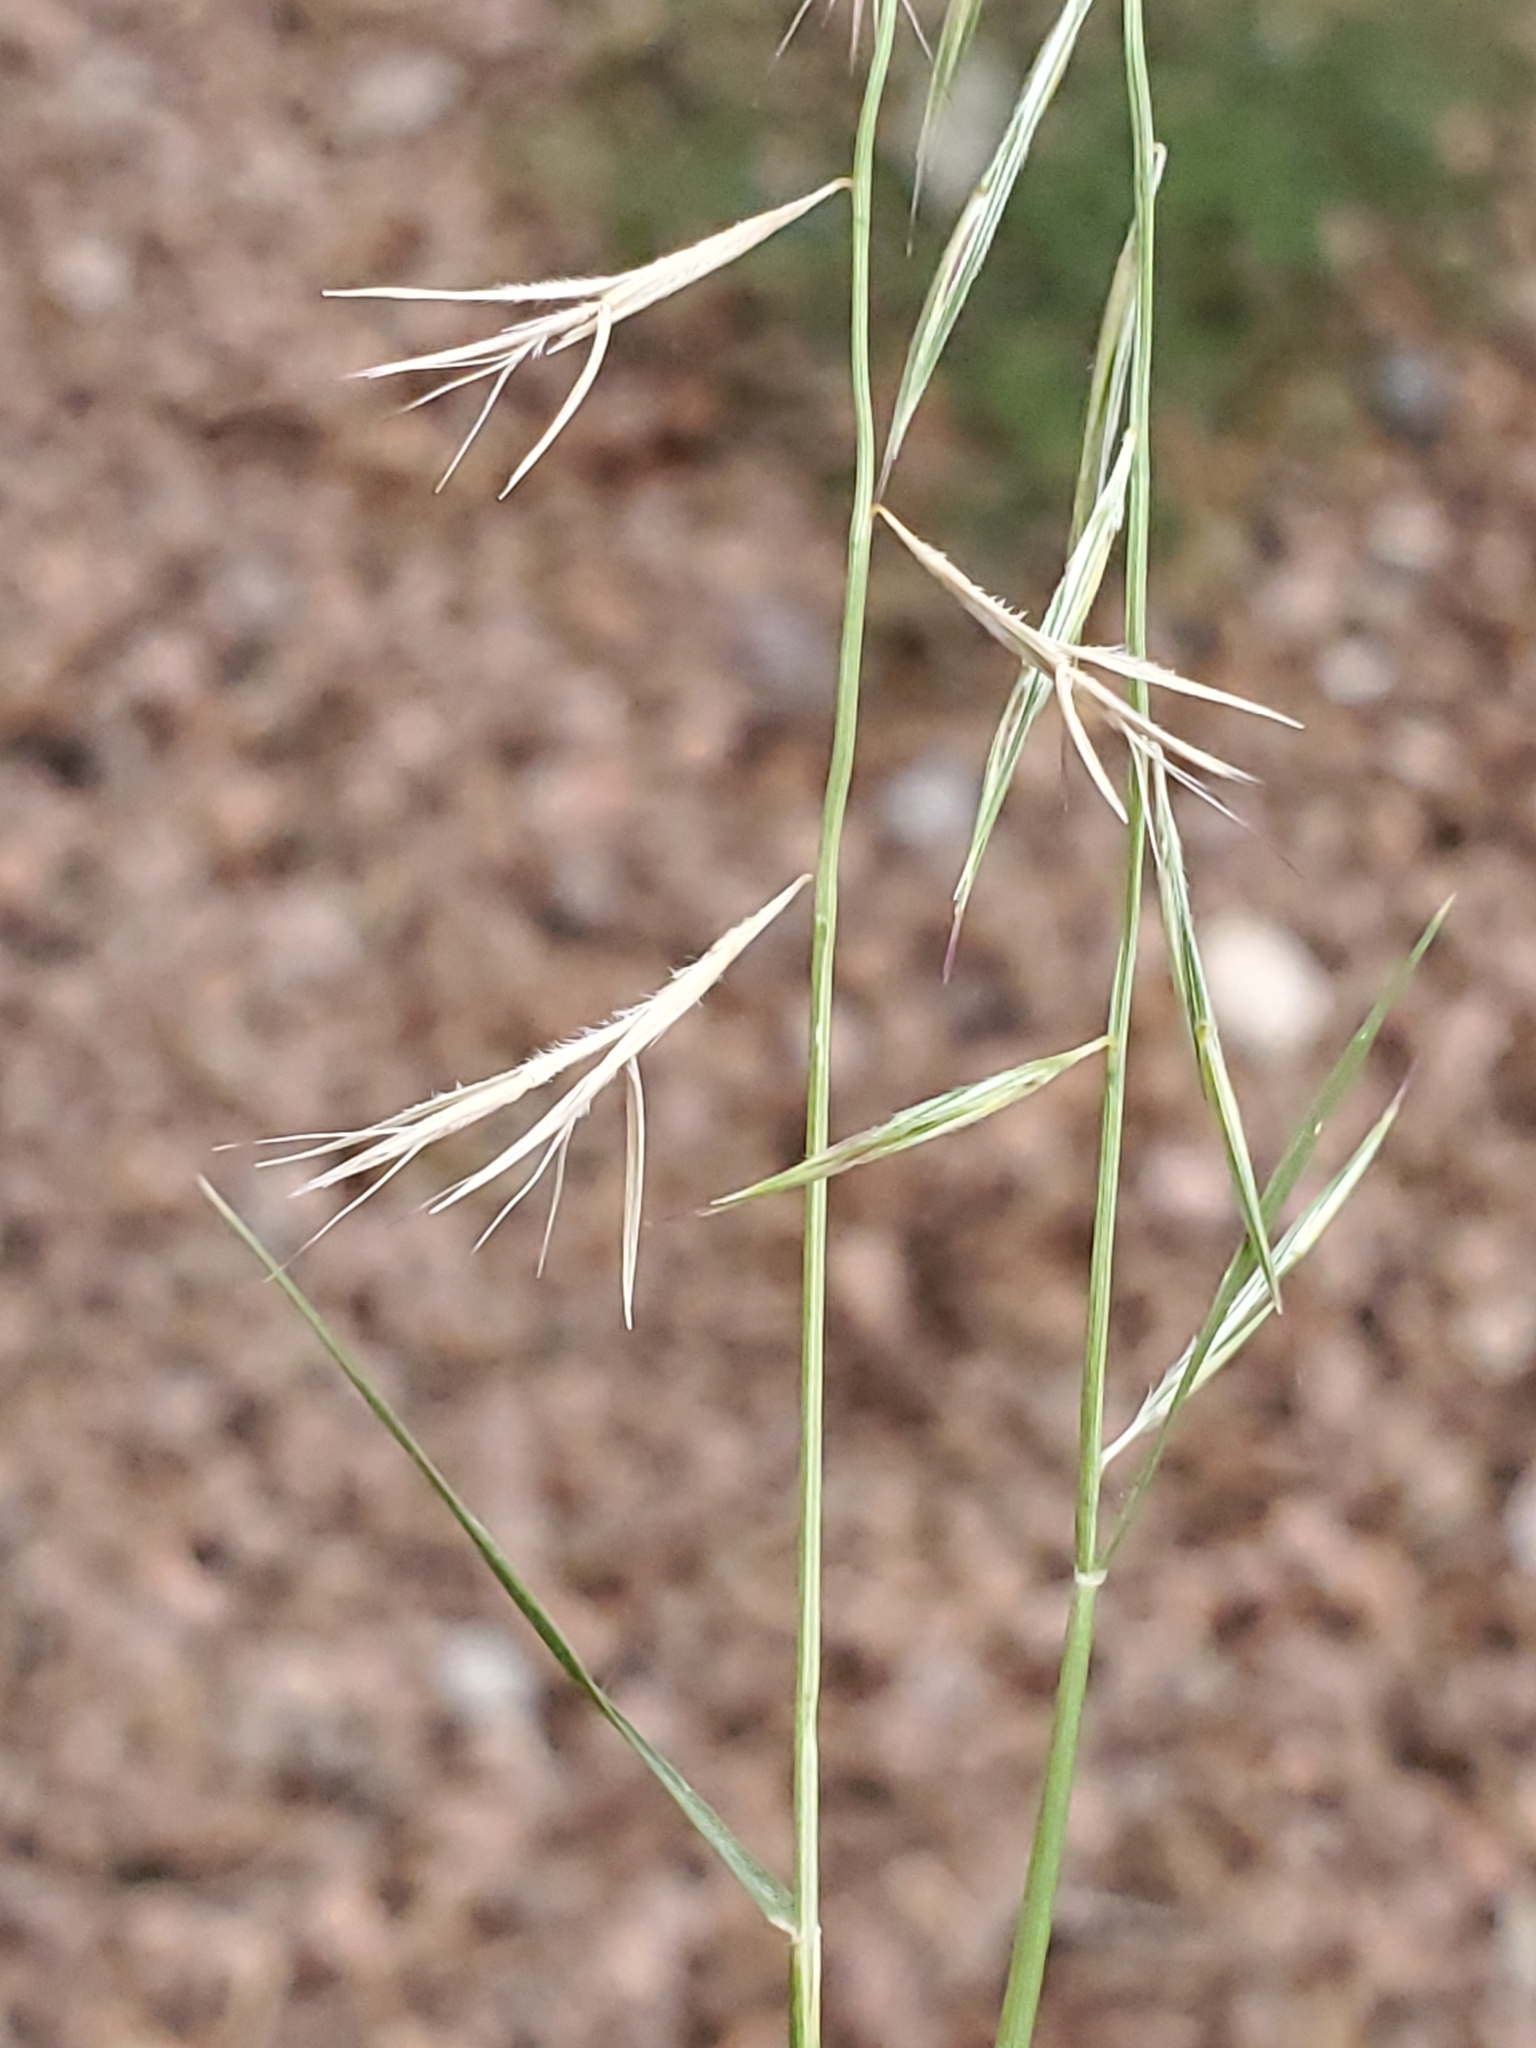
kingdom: Plantae
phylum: Tracheophyta
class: Liliopsida
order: Poales
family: Poaceae
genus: Bouteloua
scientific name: Bouteloua aristidoides
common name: Needle grama
